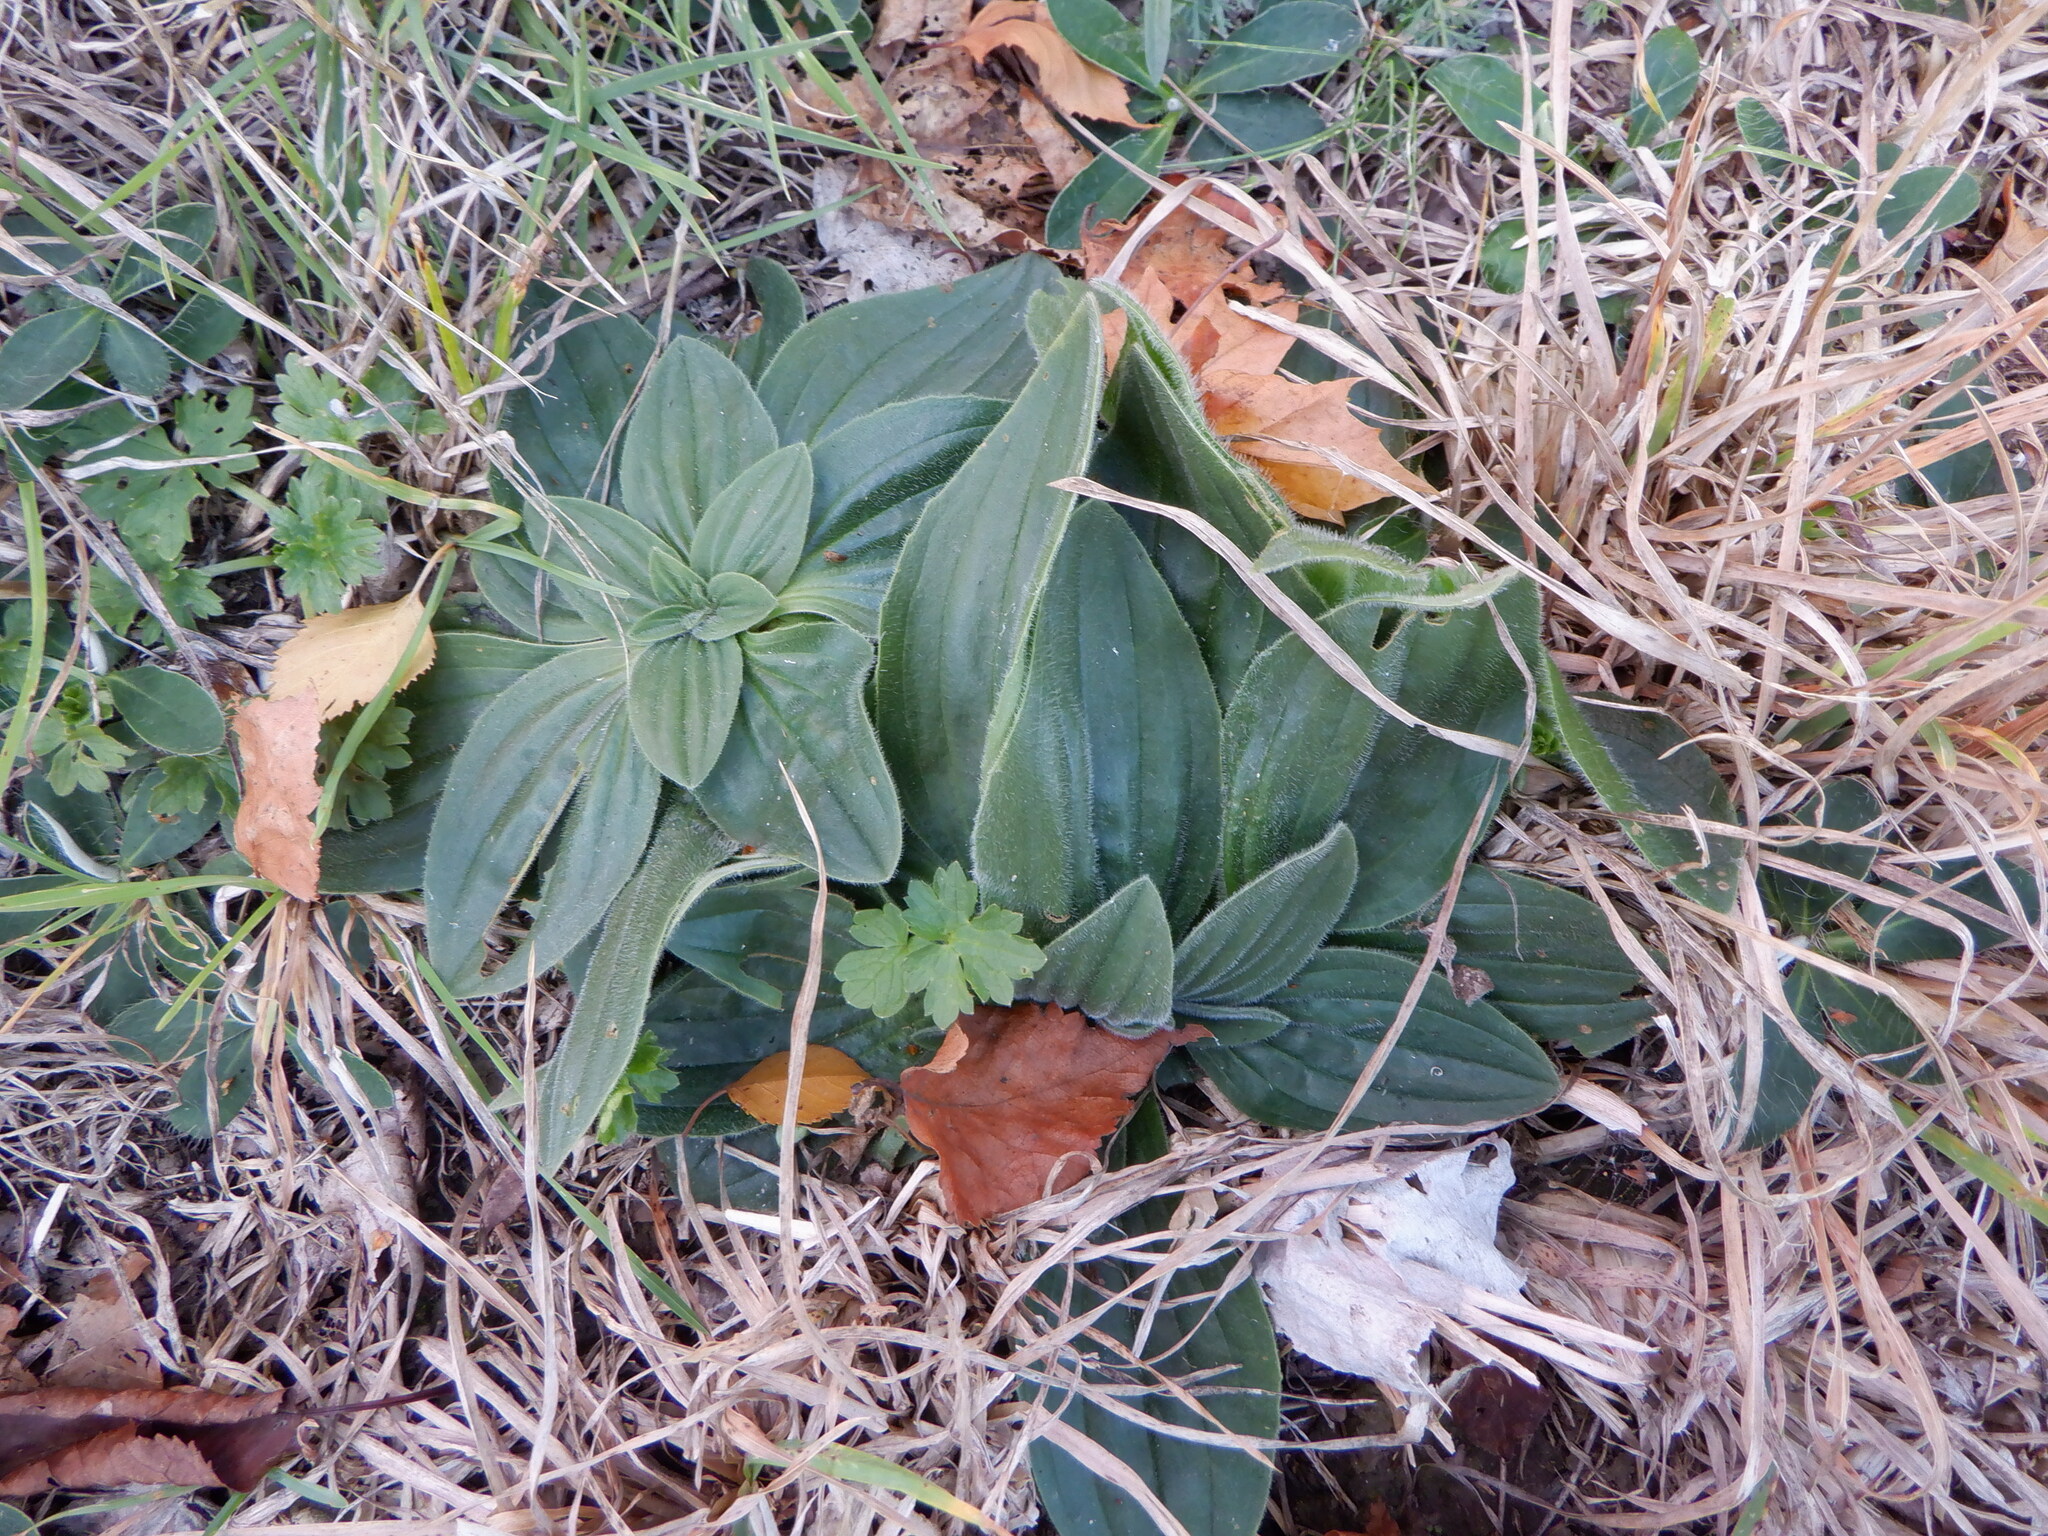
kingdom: Plantae
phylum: Tracheophyta
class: Magnoliopsida
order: Lamiales
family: Plantaginaceae
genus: Plantago
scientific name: Plantago media
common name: Hoary plantain
